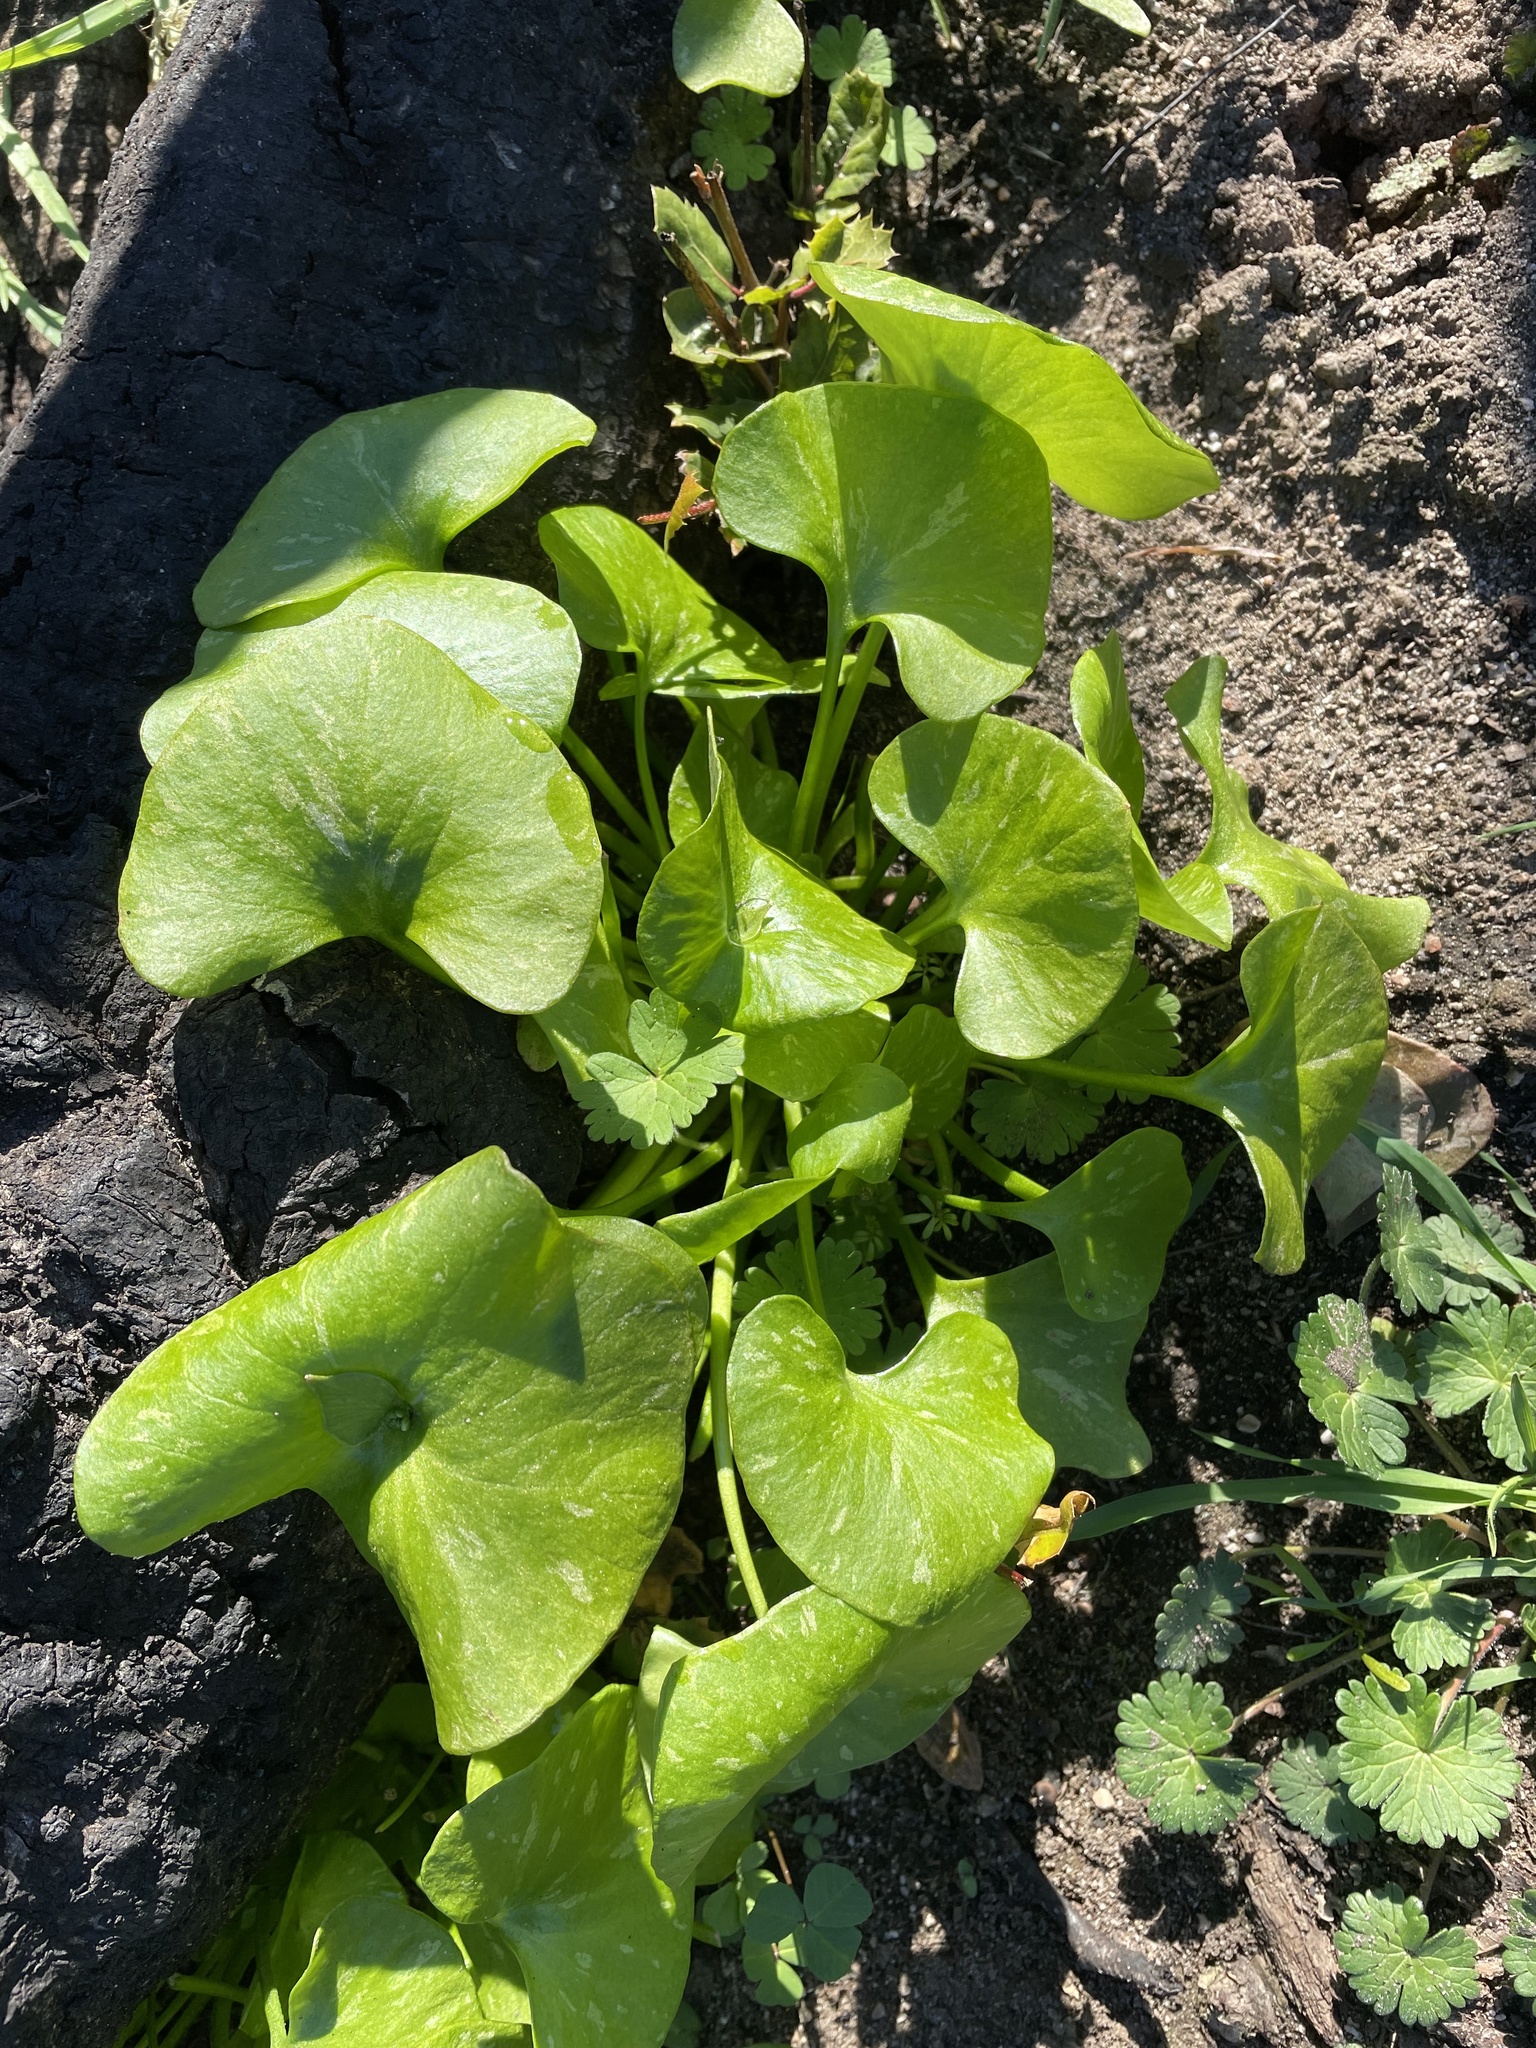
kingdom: Plantae
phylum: Tracheophyta
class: Magnoliopsida
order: Caryophyllales
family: Montiaceae
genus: Claytonia
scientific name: Claytonia perfoliata
